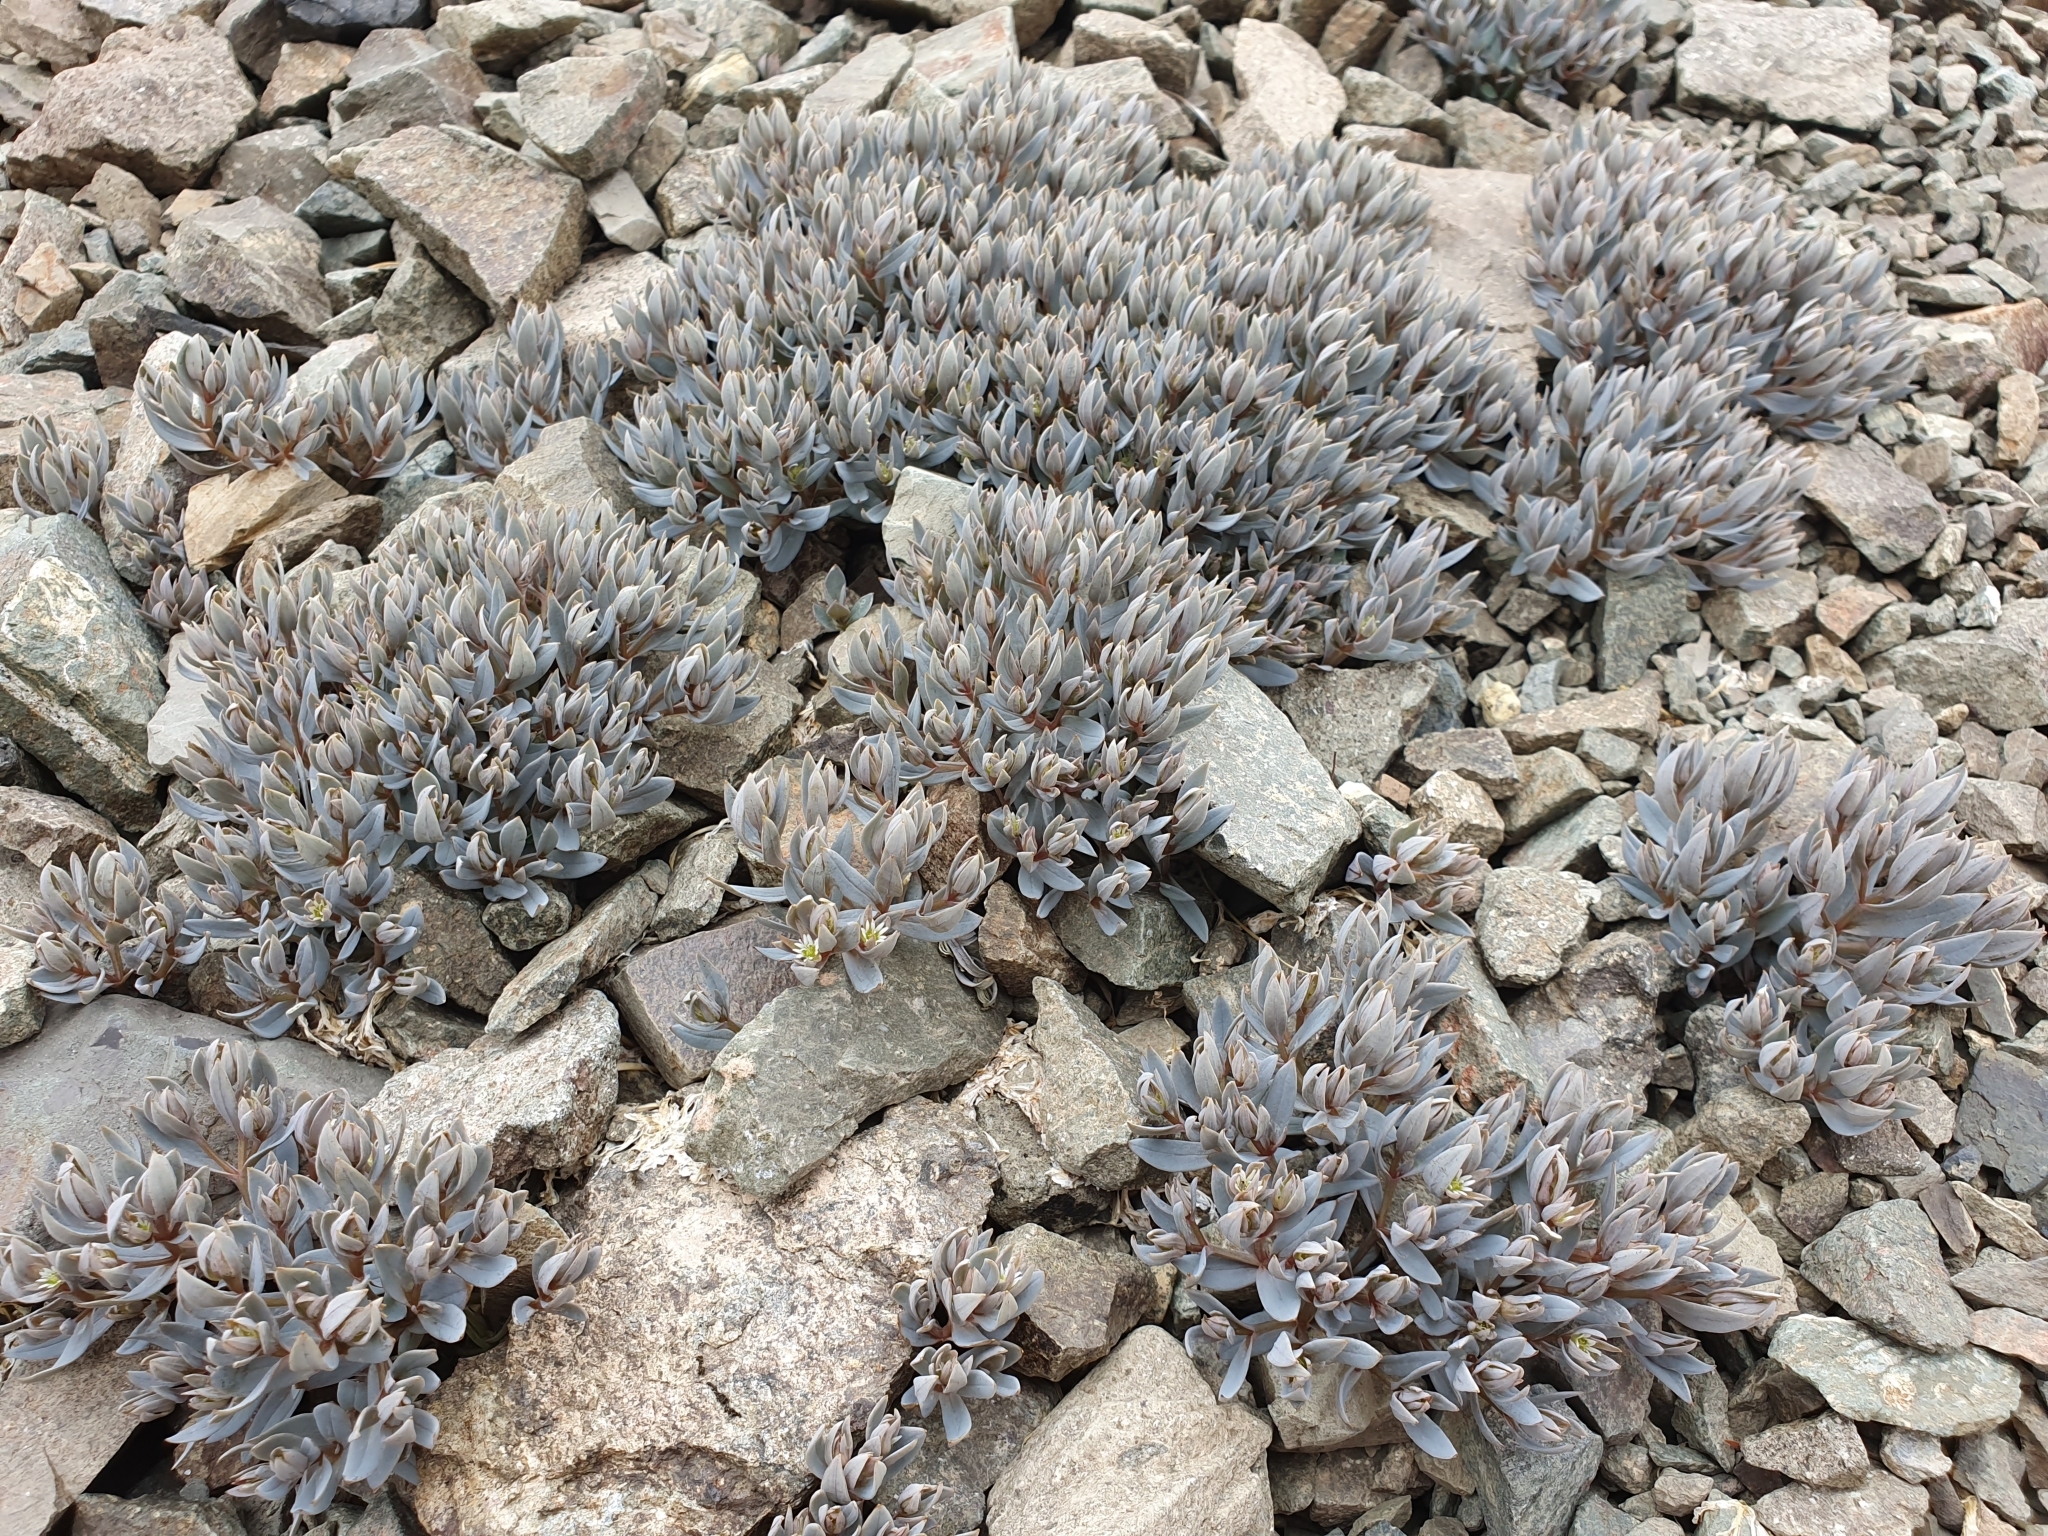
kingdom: Plantae
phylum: Tracheophyta
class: Magnoliopsida
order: Caryophyllales
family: Caryophyllaceae
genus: Stellaria
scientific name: Stellaria roughii
